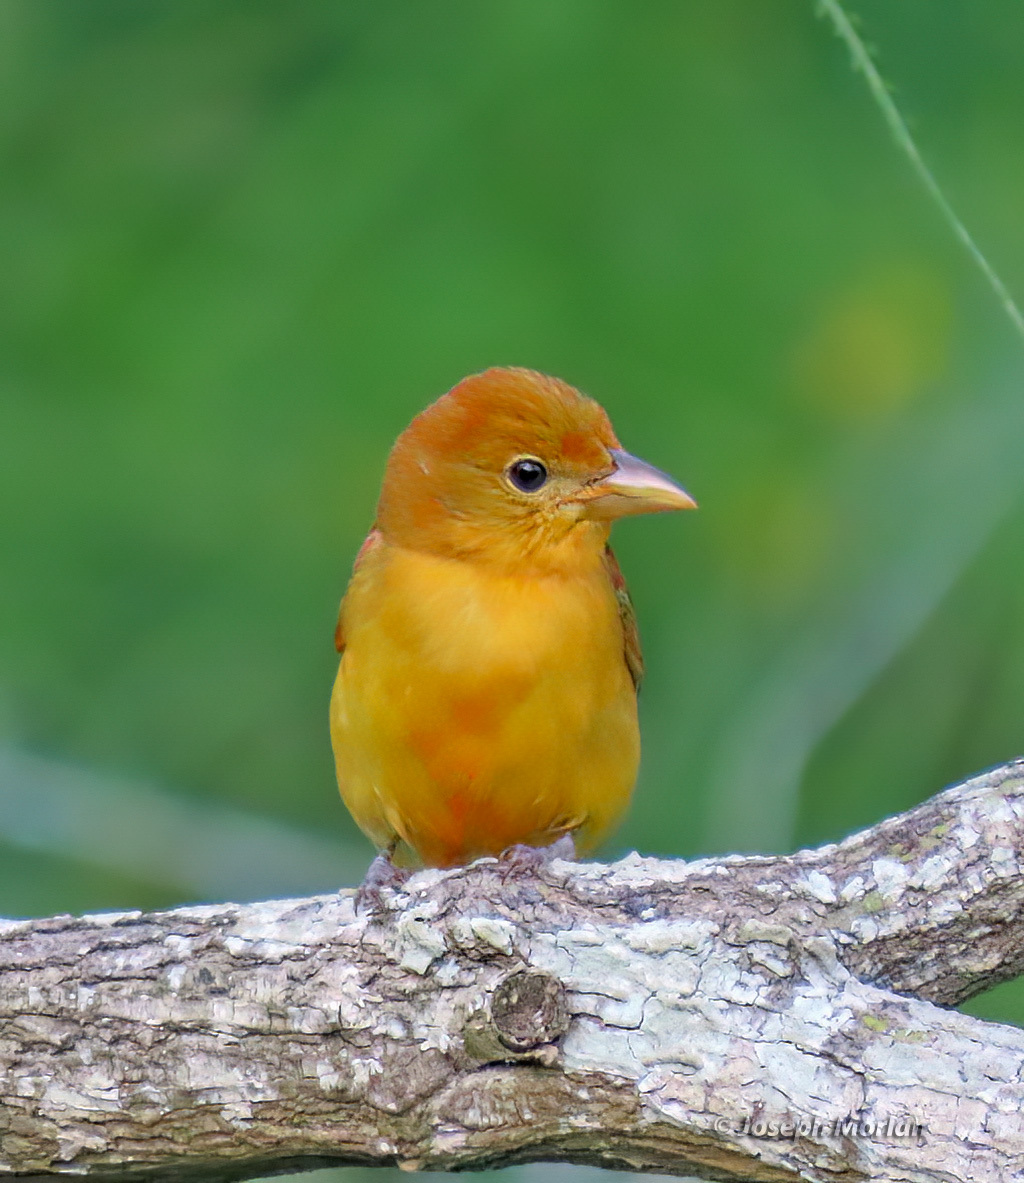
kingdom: Animalia
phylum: Chordata
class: Aves
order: Passeriformes
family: Cardinalidae
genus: Piranga
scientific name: Piranga rubra
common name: Summer tanager
